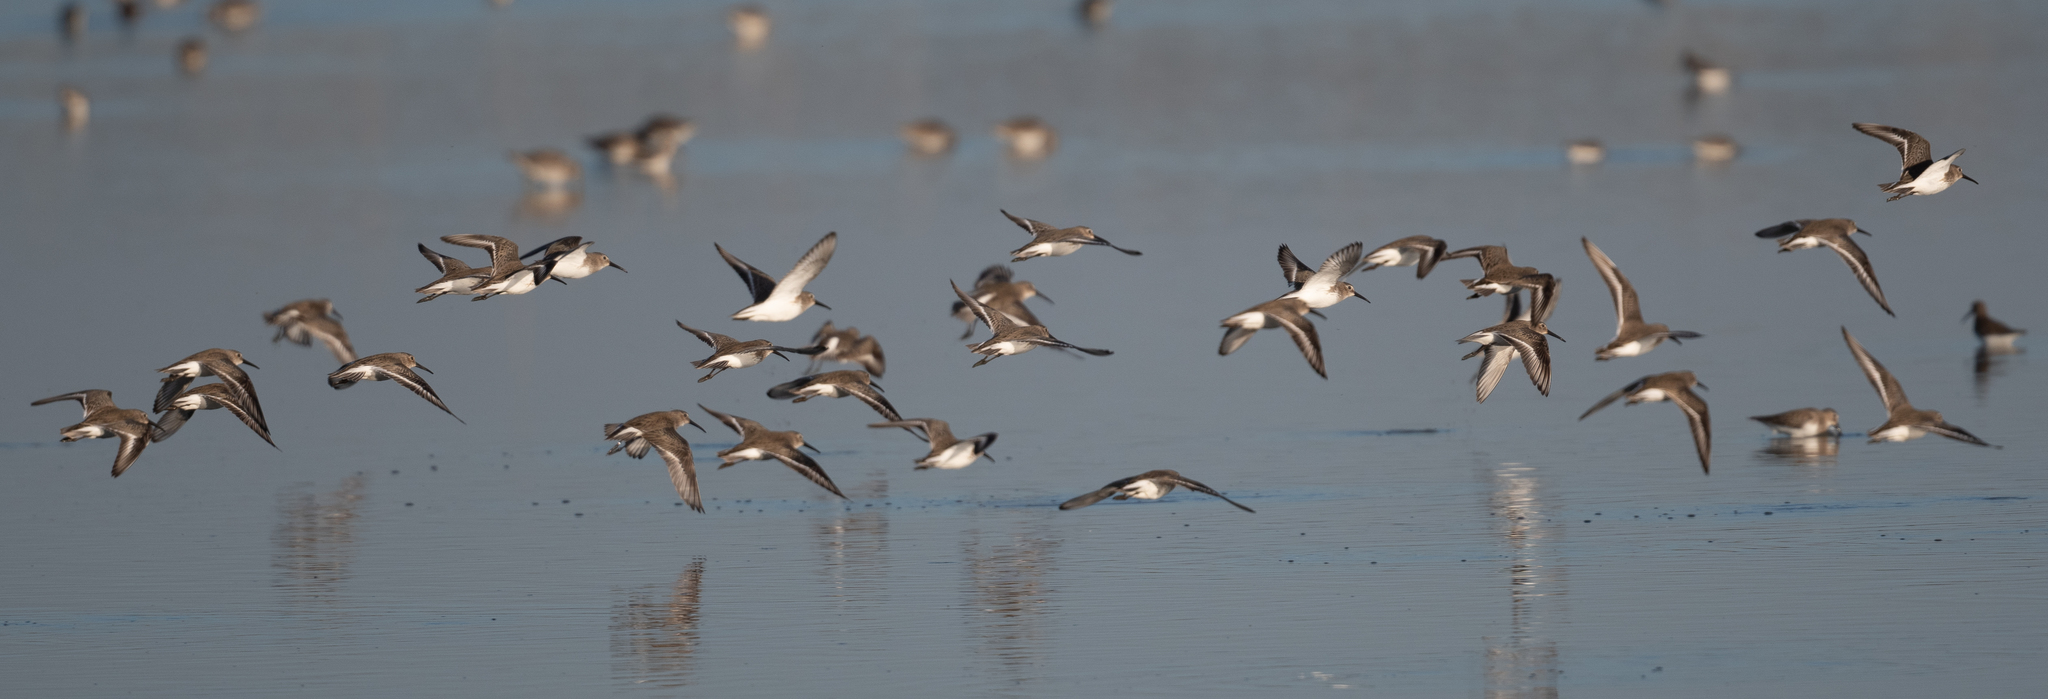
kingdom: Animalia
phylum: Chordata
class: Aves
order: Charadriiformes
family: Scolopacidae
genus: Calidris
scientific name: Calidris alpina
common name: Dunlin
